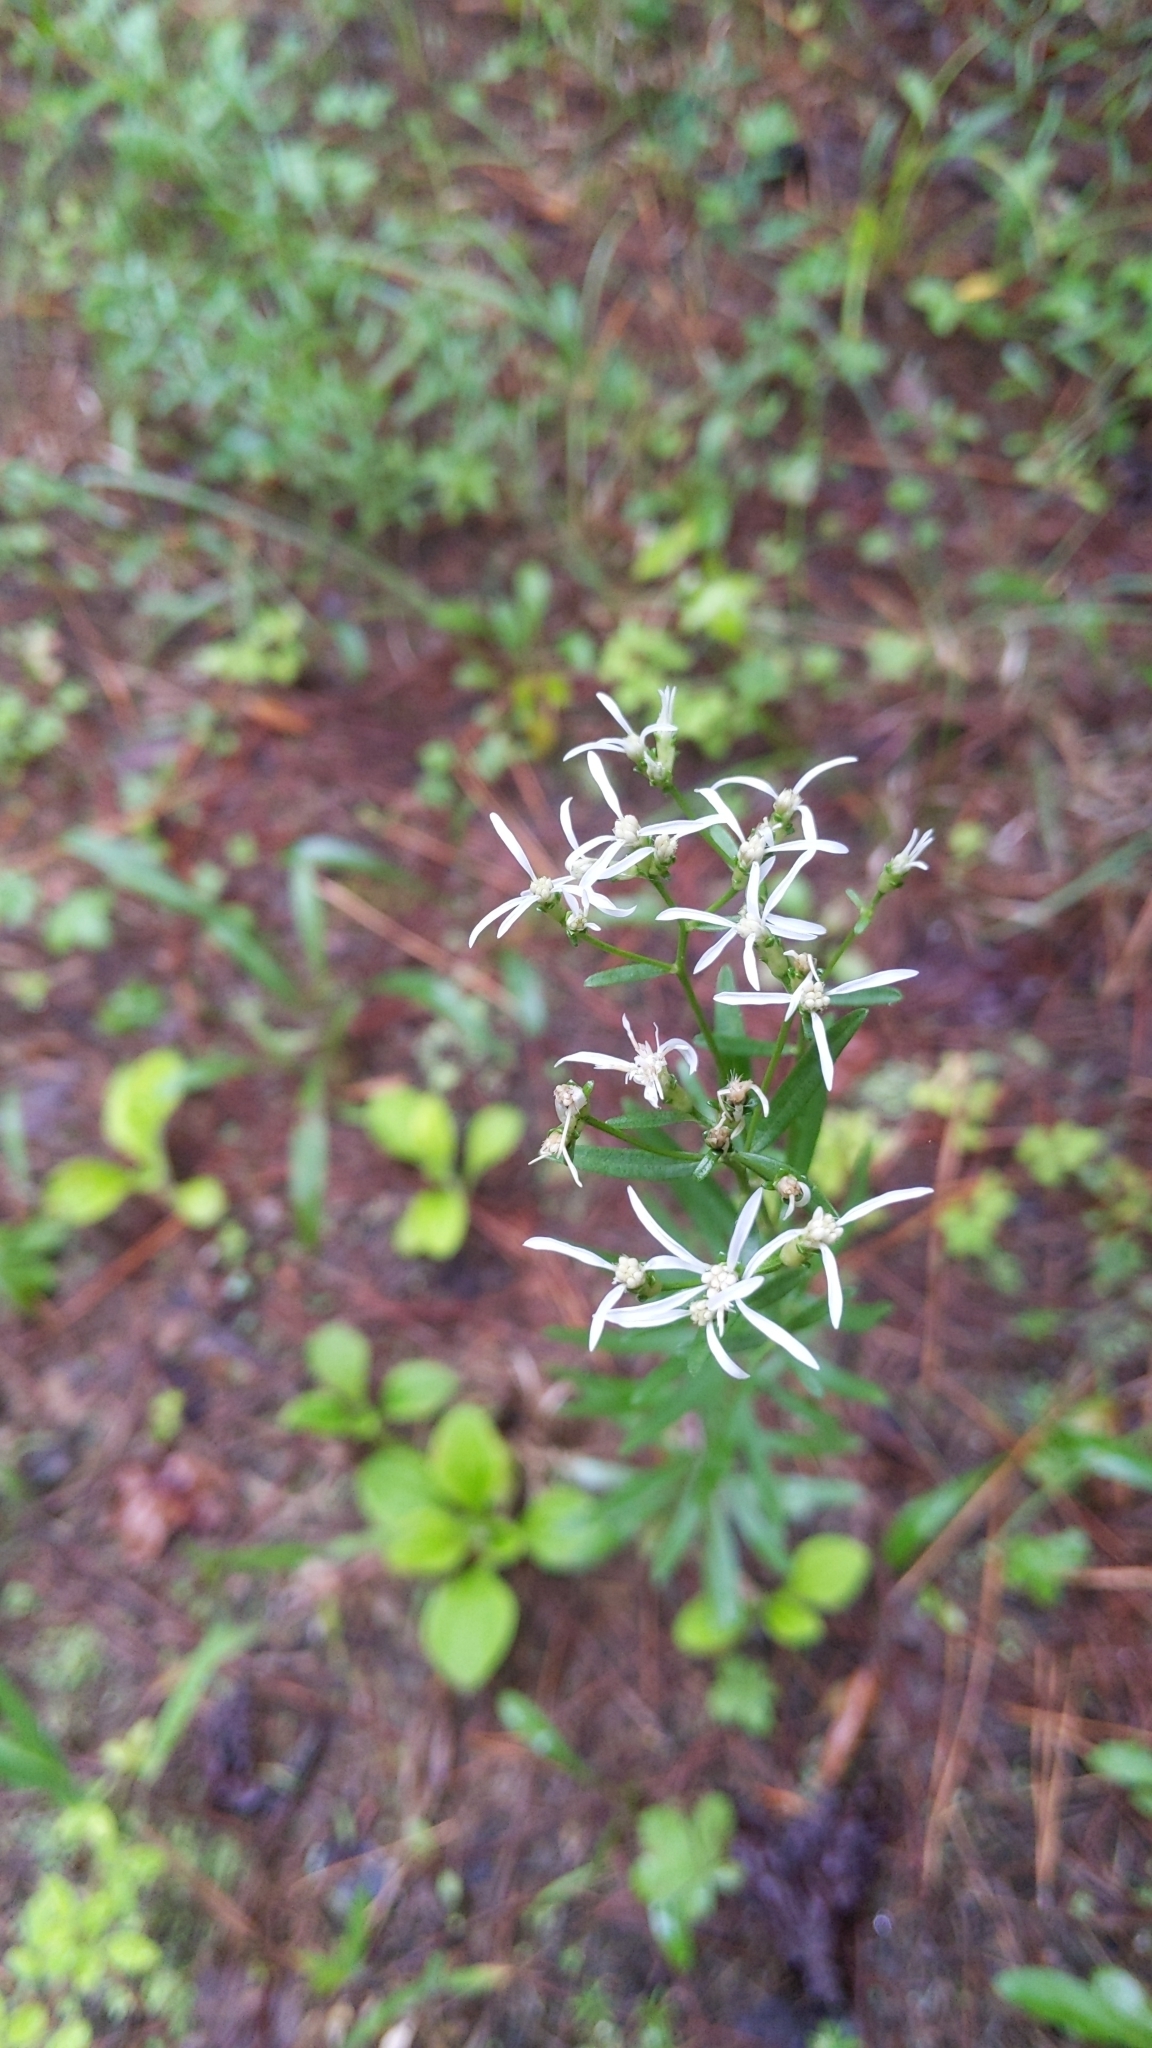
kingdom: Plantae
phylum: Tracheophyta
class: Magnoliopsida
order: Asterales
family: Asteraceae
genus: Sericocarpus
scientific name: Sericocarpus linifolius
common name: Narrow-leaf aster
